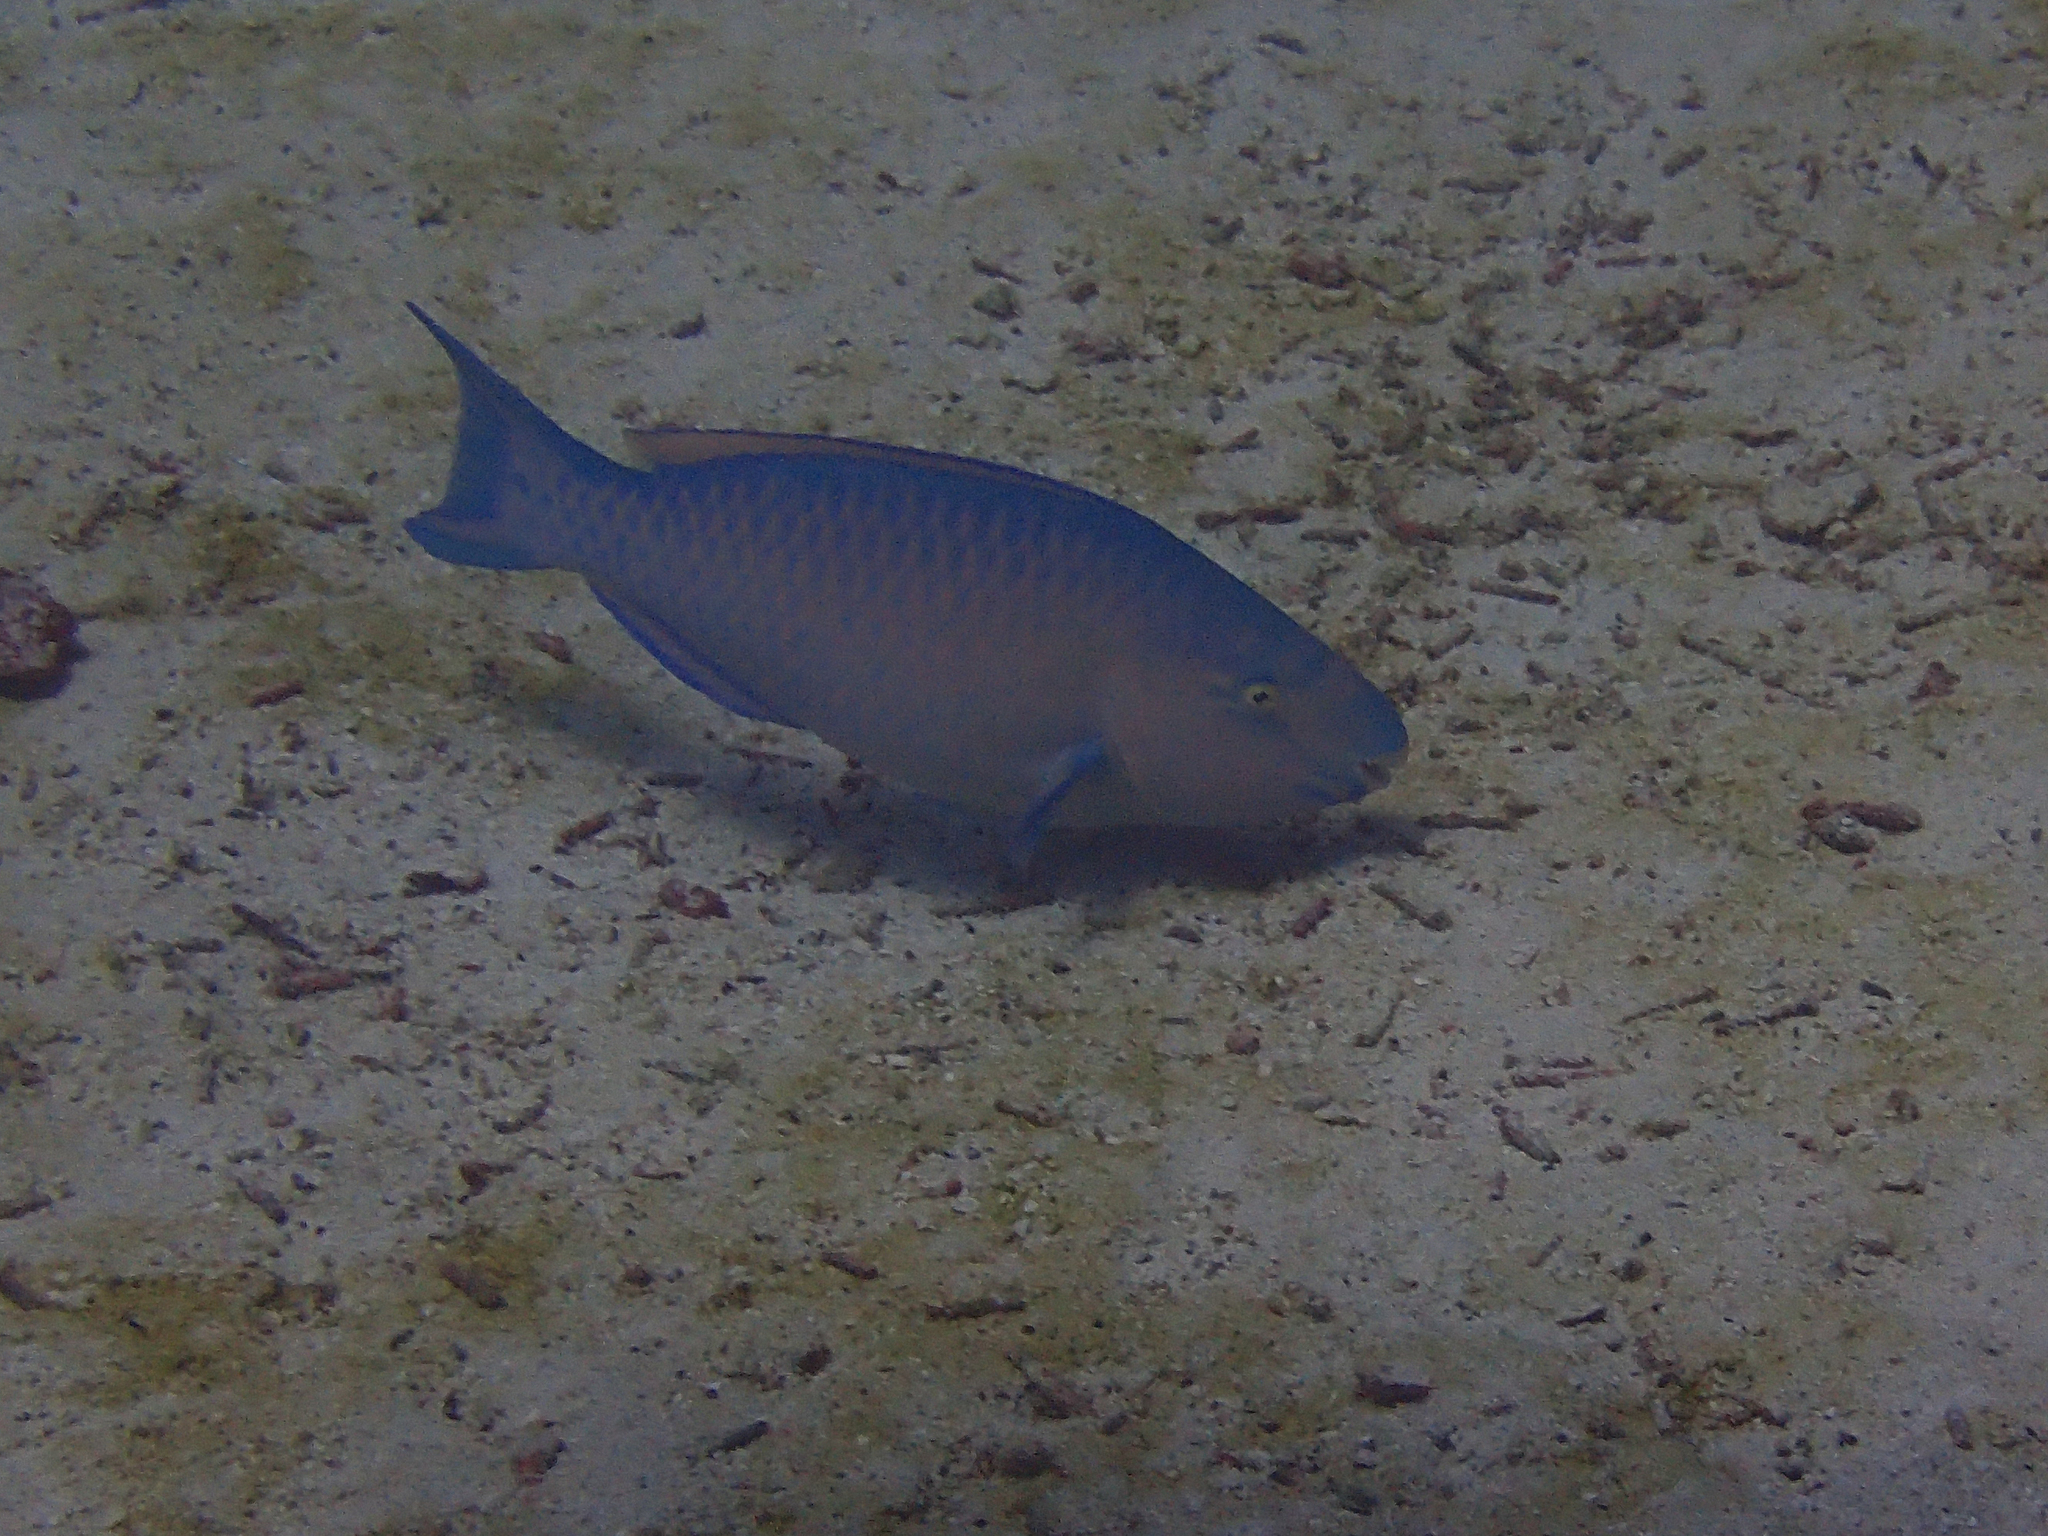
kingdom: Animalia
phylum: Chordata
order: Perciformes
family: Scaridae
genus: Scarus
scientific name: Scarus ghobban
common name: Blue-barred parrotfish
